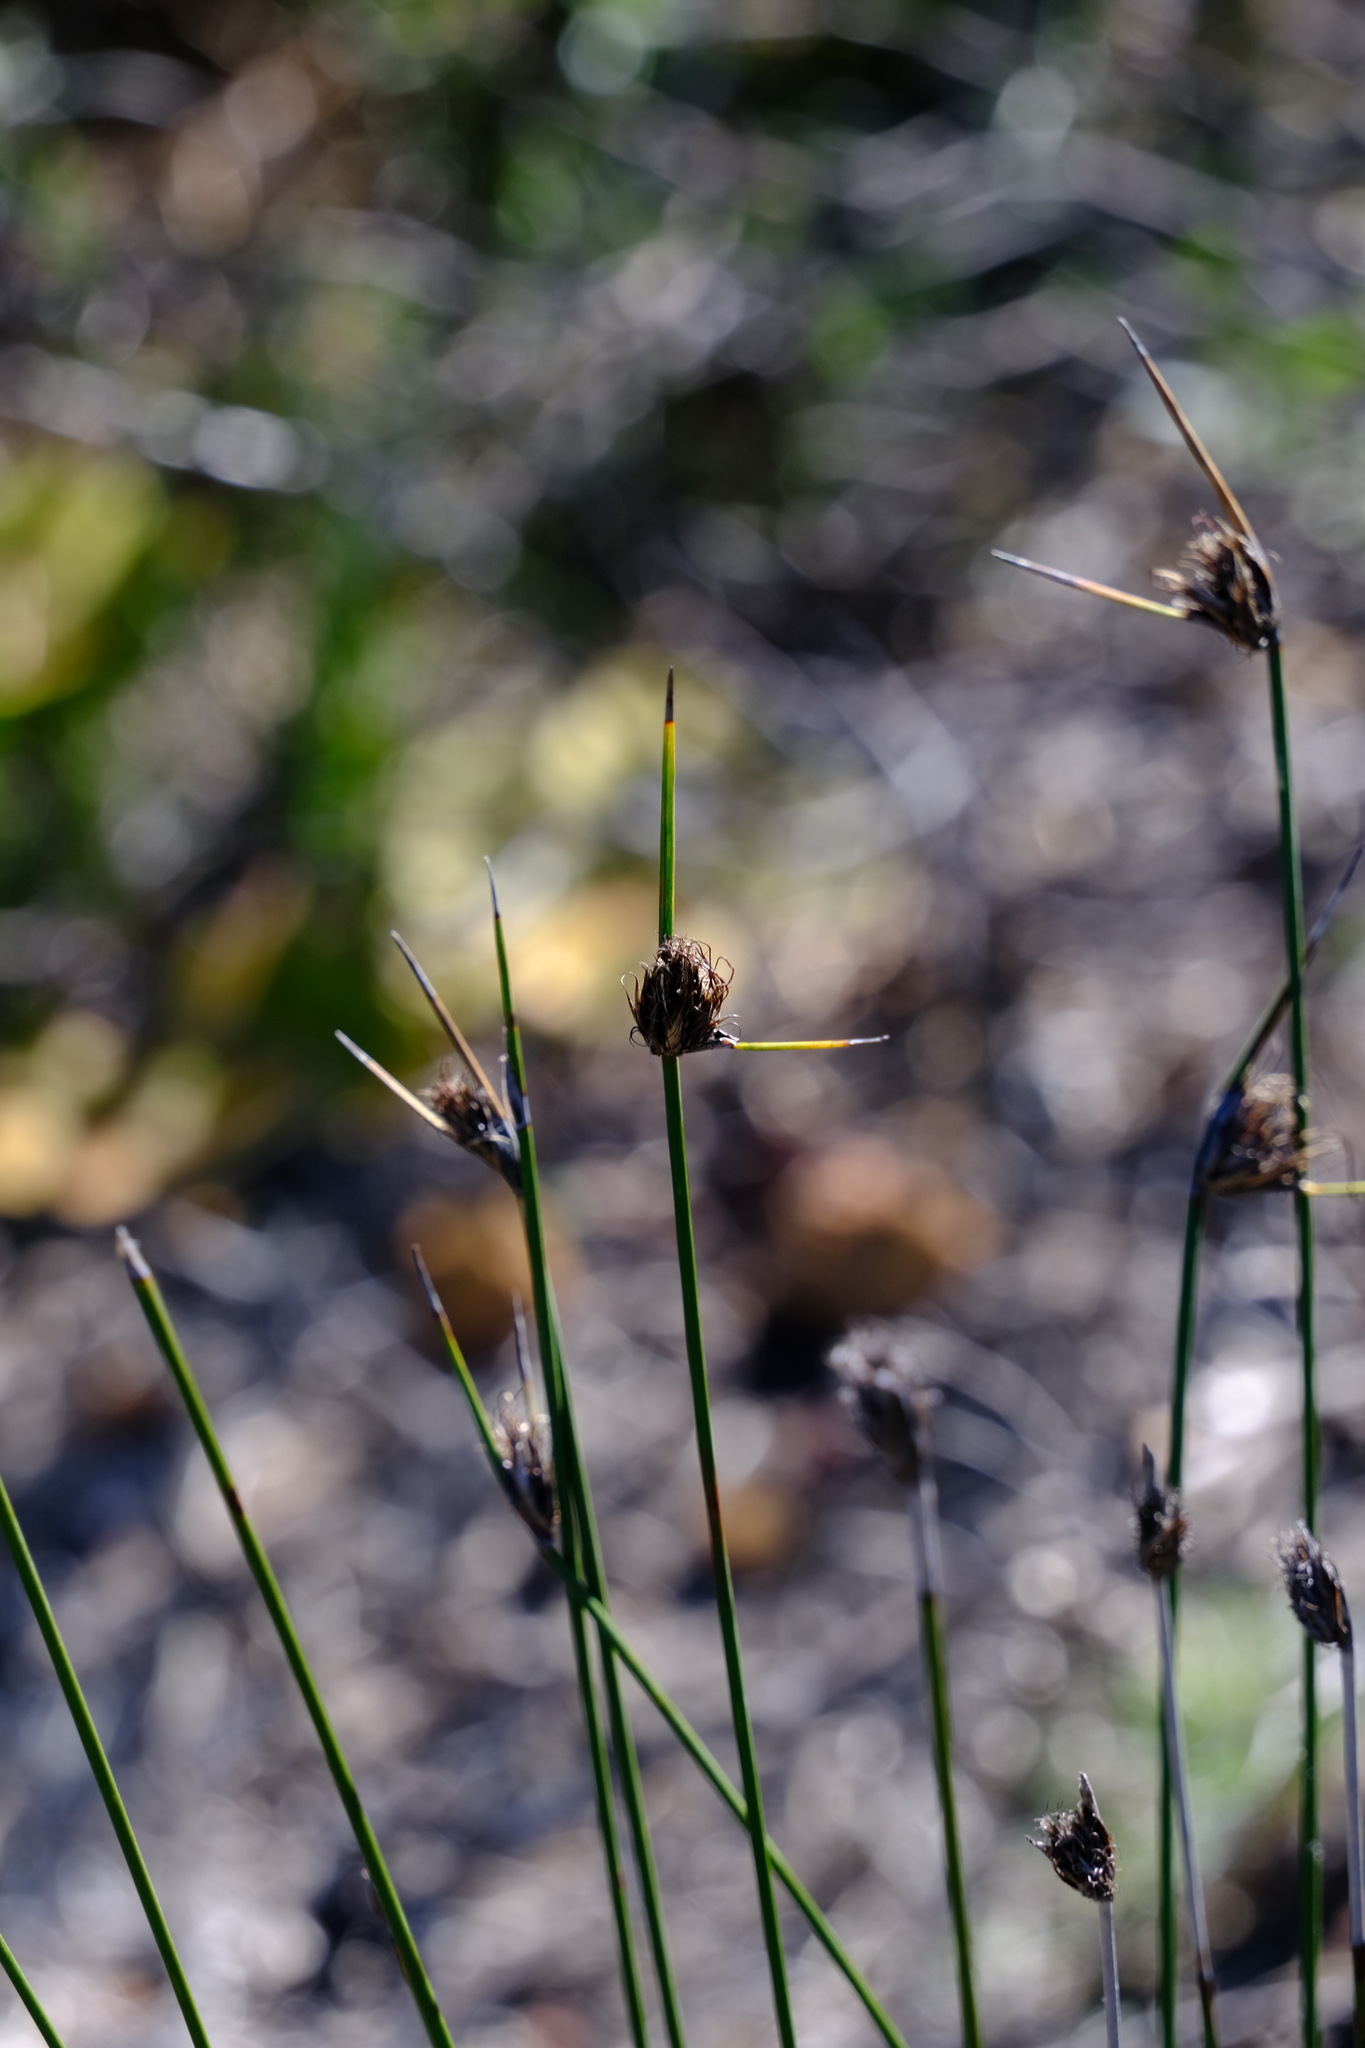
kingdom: Plantae
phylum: Tracheophyta
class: Liliopsida
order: Poales
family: Cyperaceae
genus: Mesomelaena
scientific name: Mesomelaena pseudostygia
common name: Semaphore sedge
